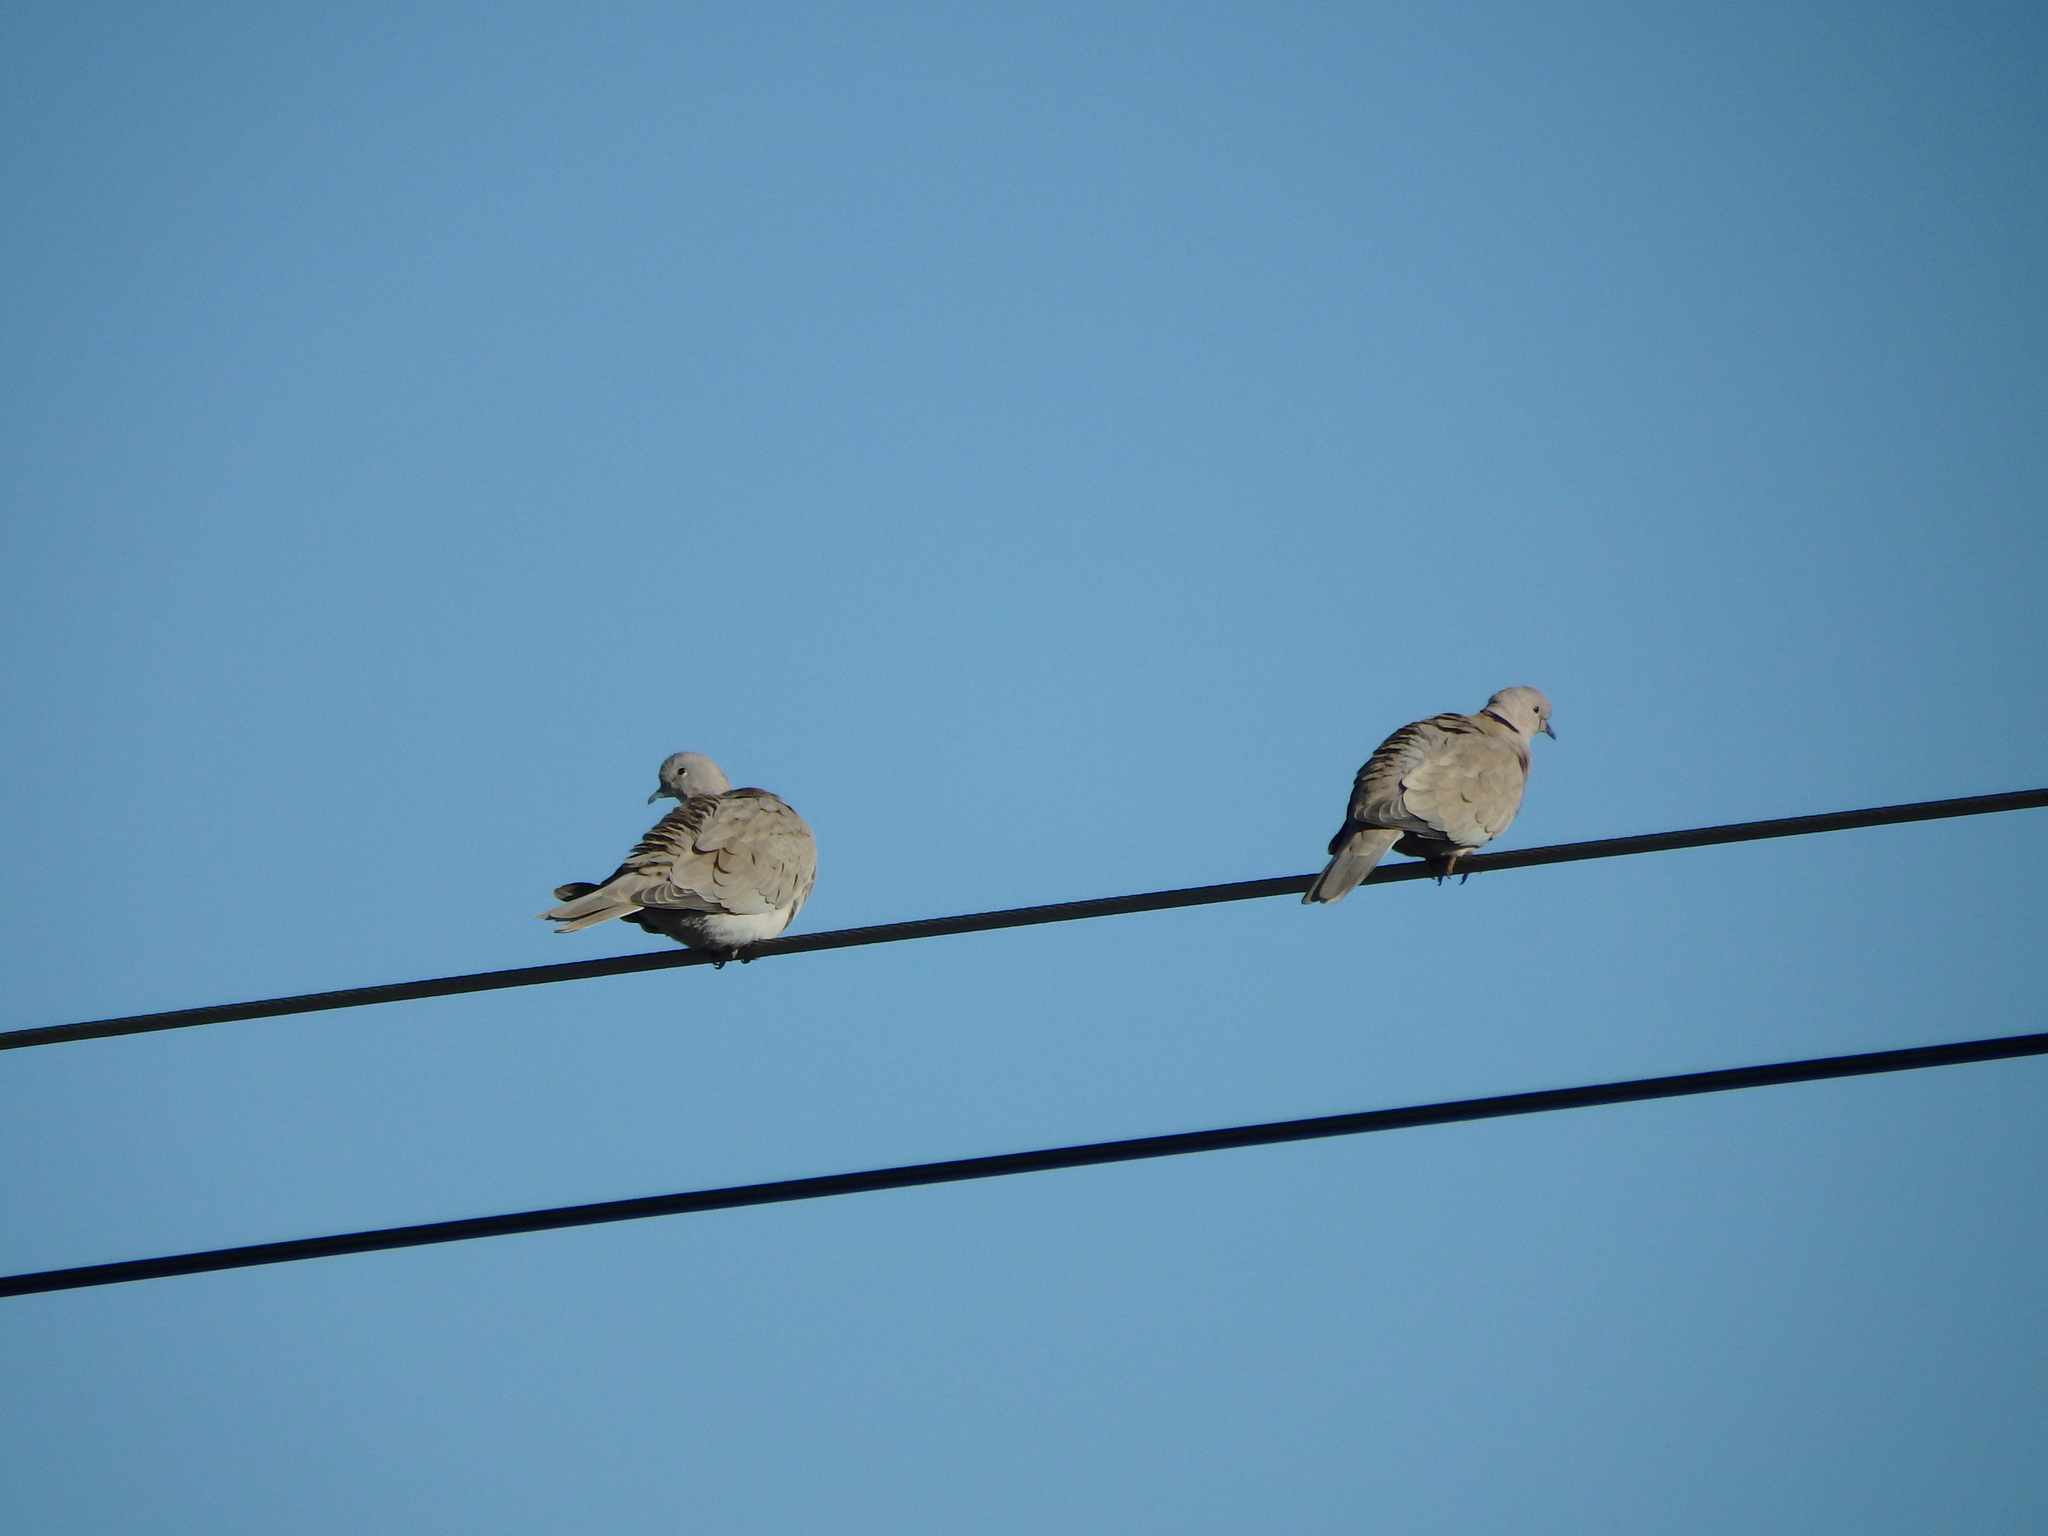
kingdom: Animalia
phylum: Chordata
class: Aves
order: Columbiformes
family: Columbidae
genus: Streptopelia
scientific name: Streptopelia decaocto
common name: Eurasian collared dove
